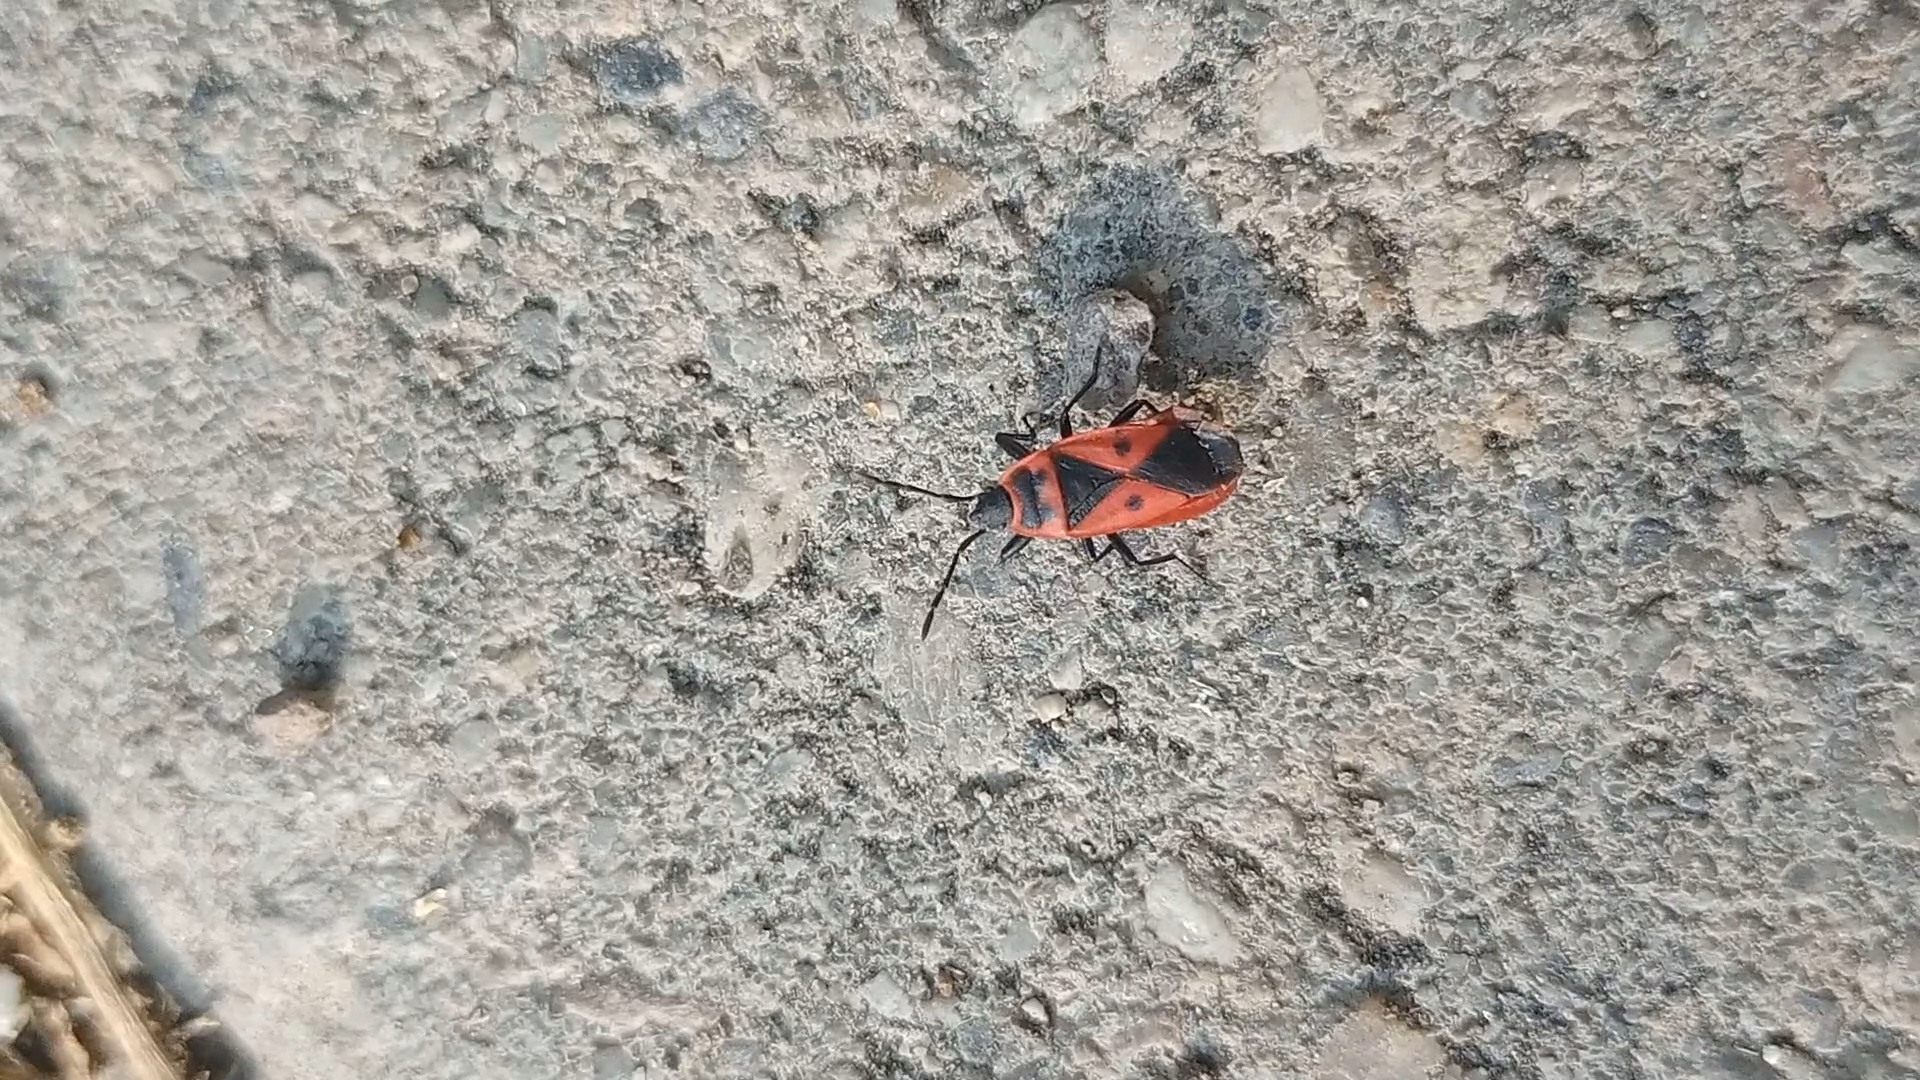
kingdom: Animalia
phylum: Arthropoda
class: Insecta
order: Hemiptera
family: Pyrrhocoridae
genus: Scantius
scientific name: Scantius aegyptius
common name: Red bug
